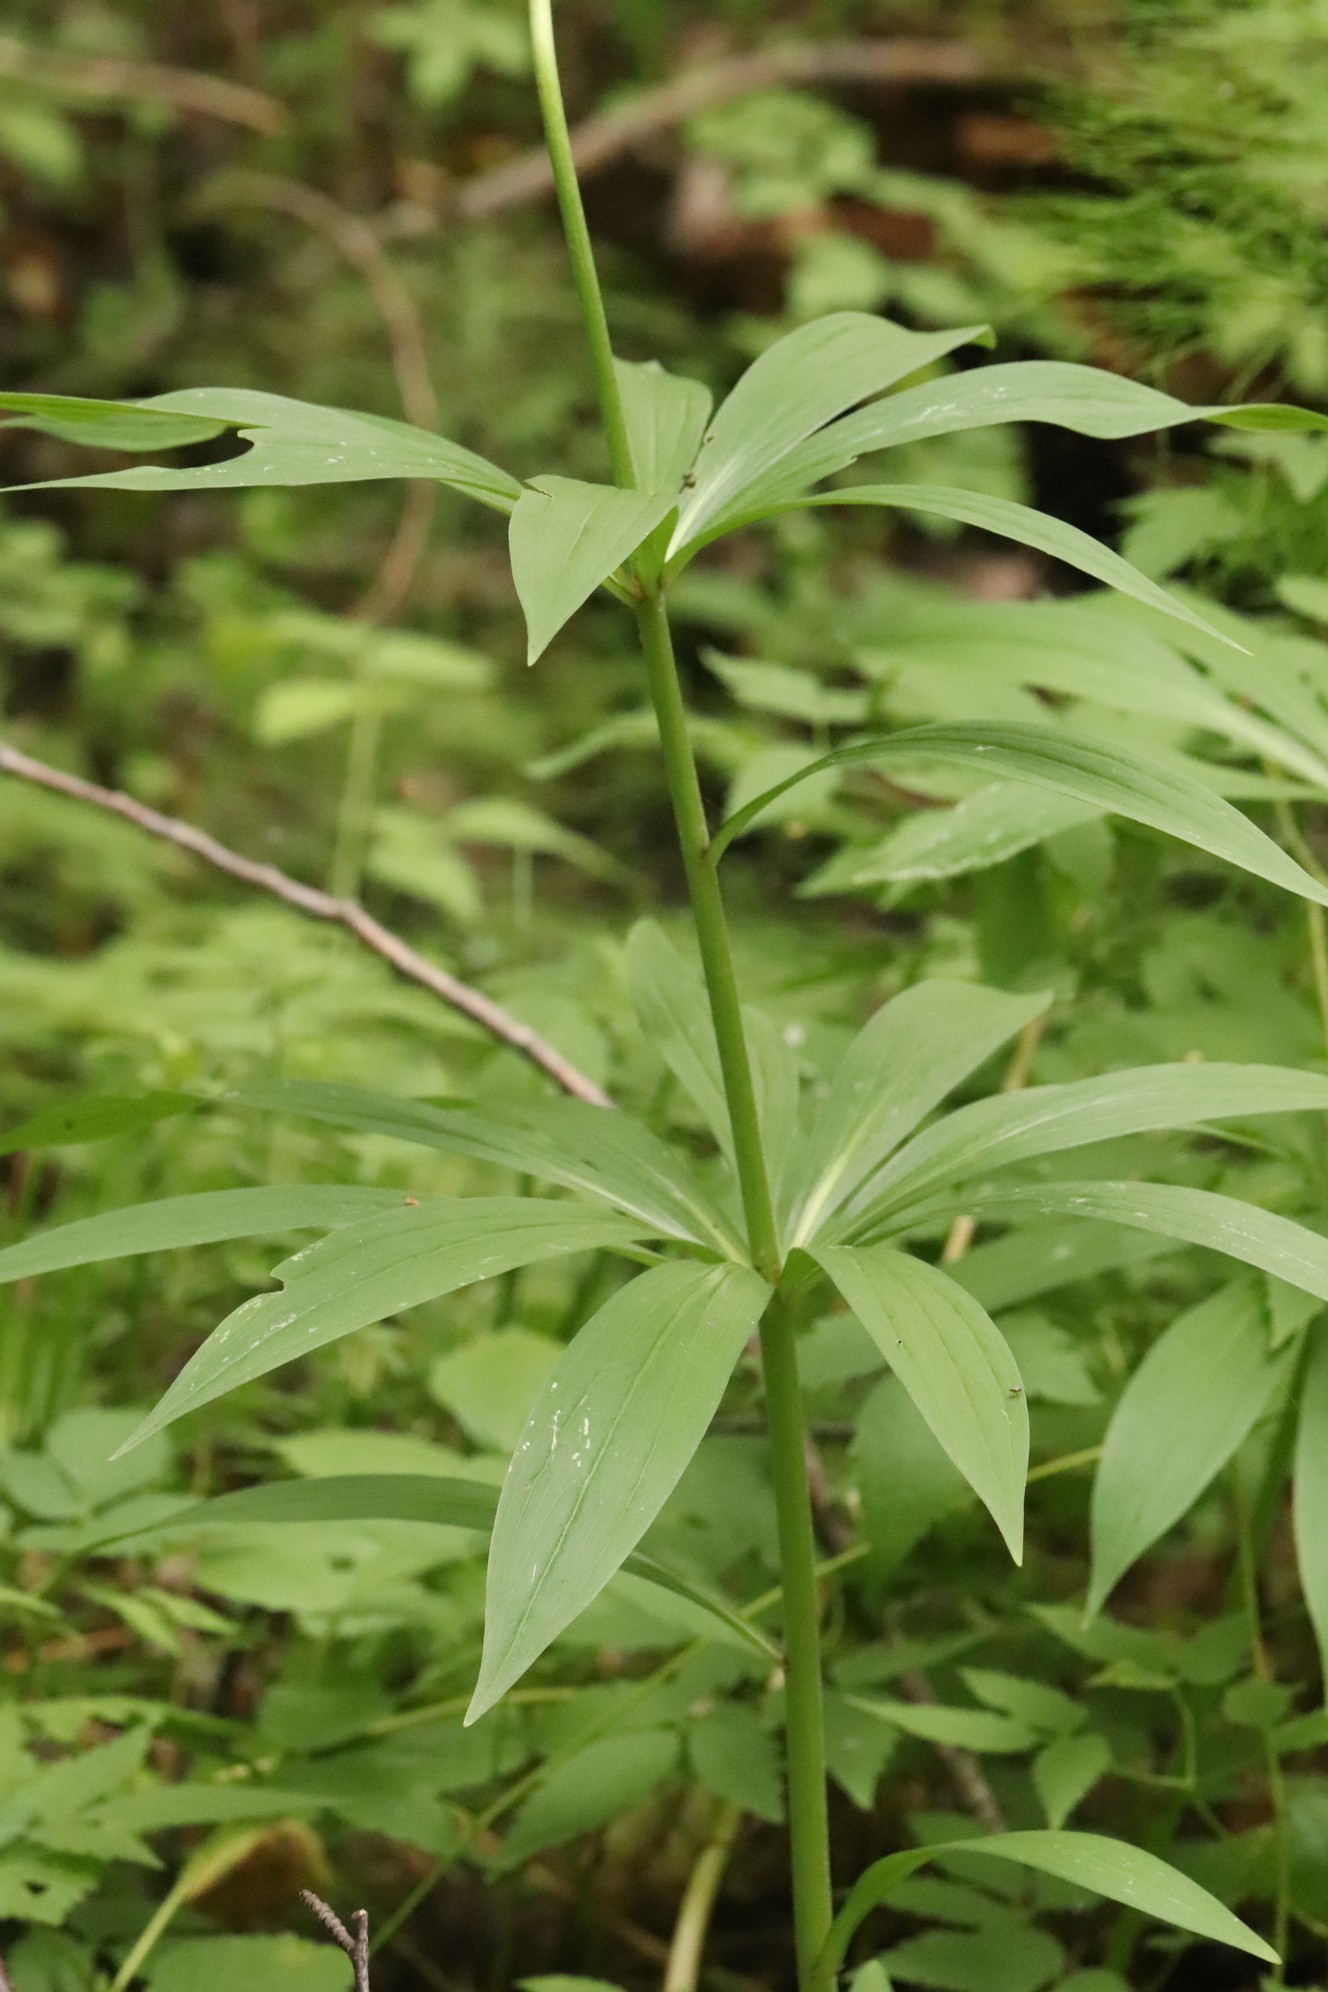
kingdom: Plantae
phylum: Tracheophyta
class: Liliopsida
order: Liliales
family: Liliaceae
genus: Lilium
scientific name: Lilium martagon
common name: Martagon lily
